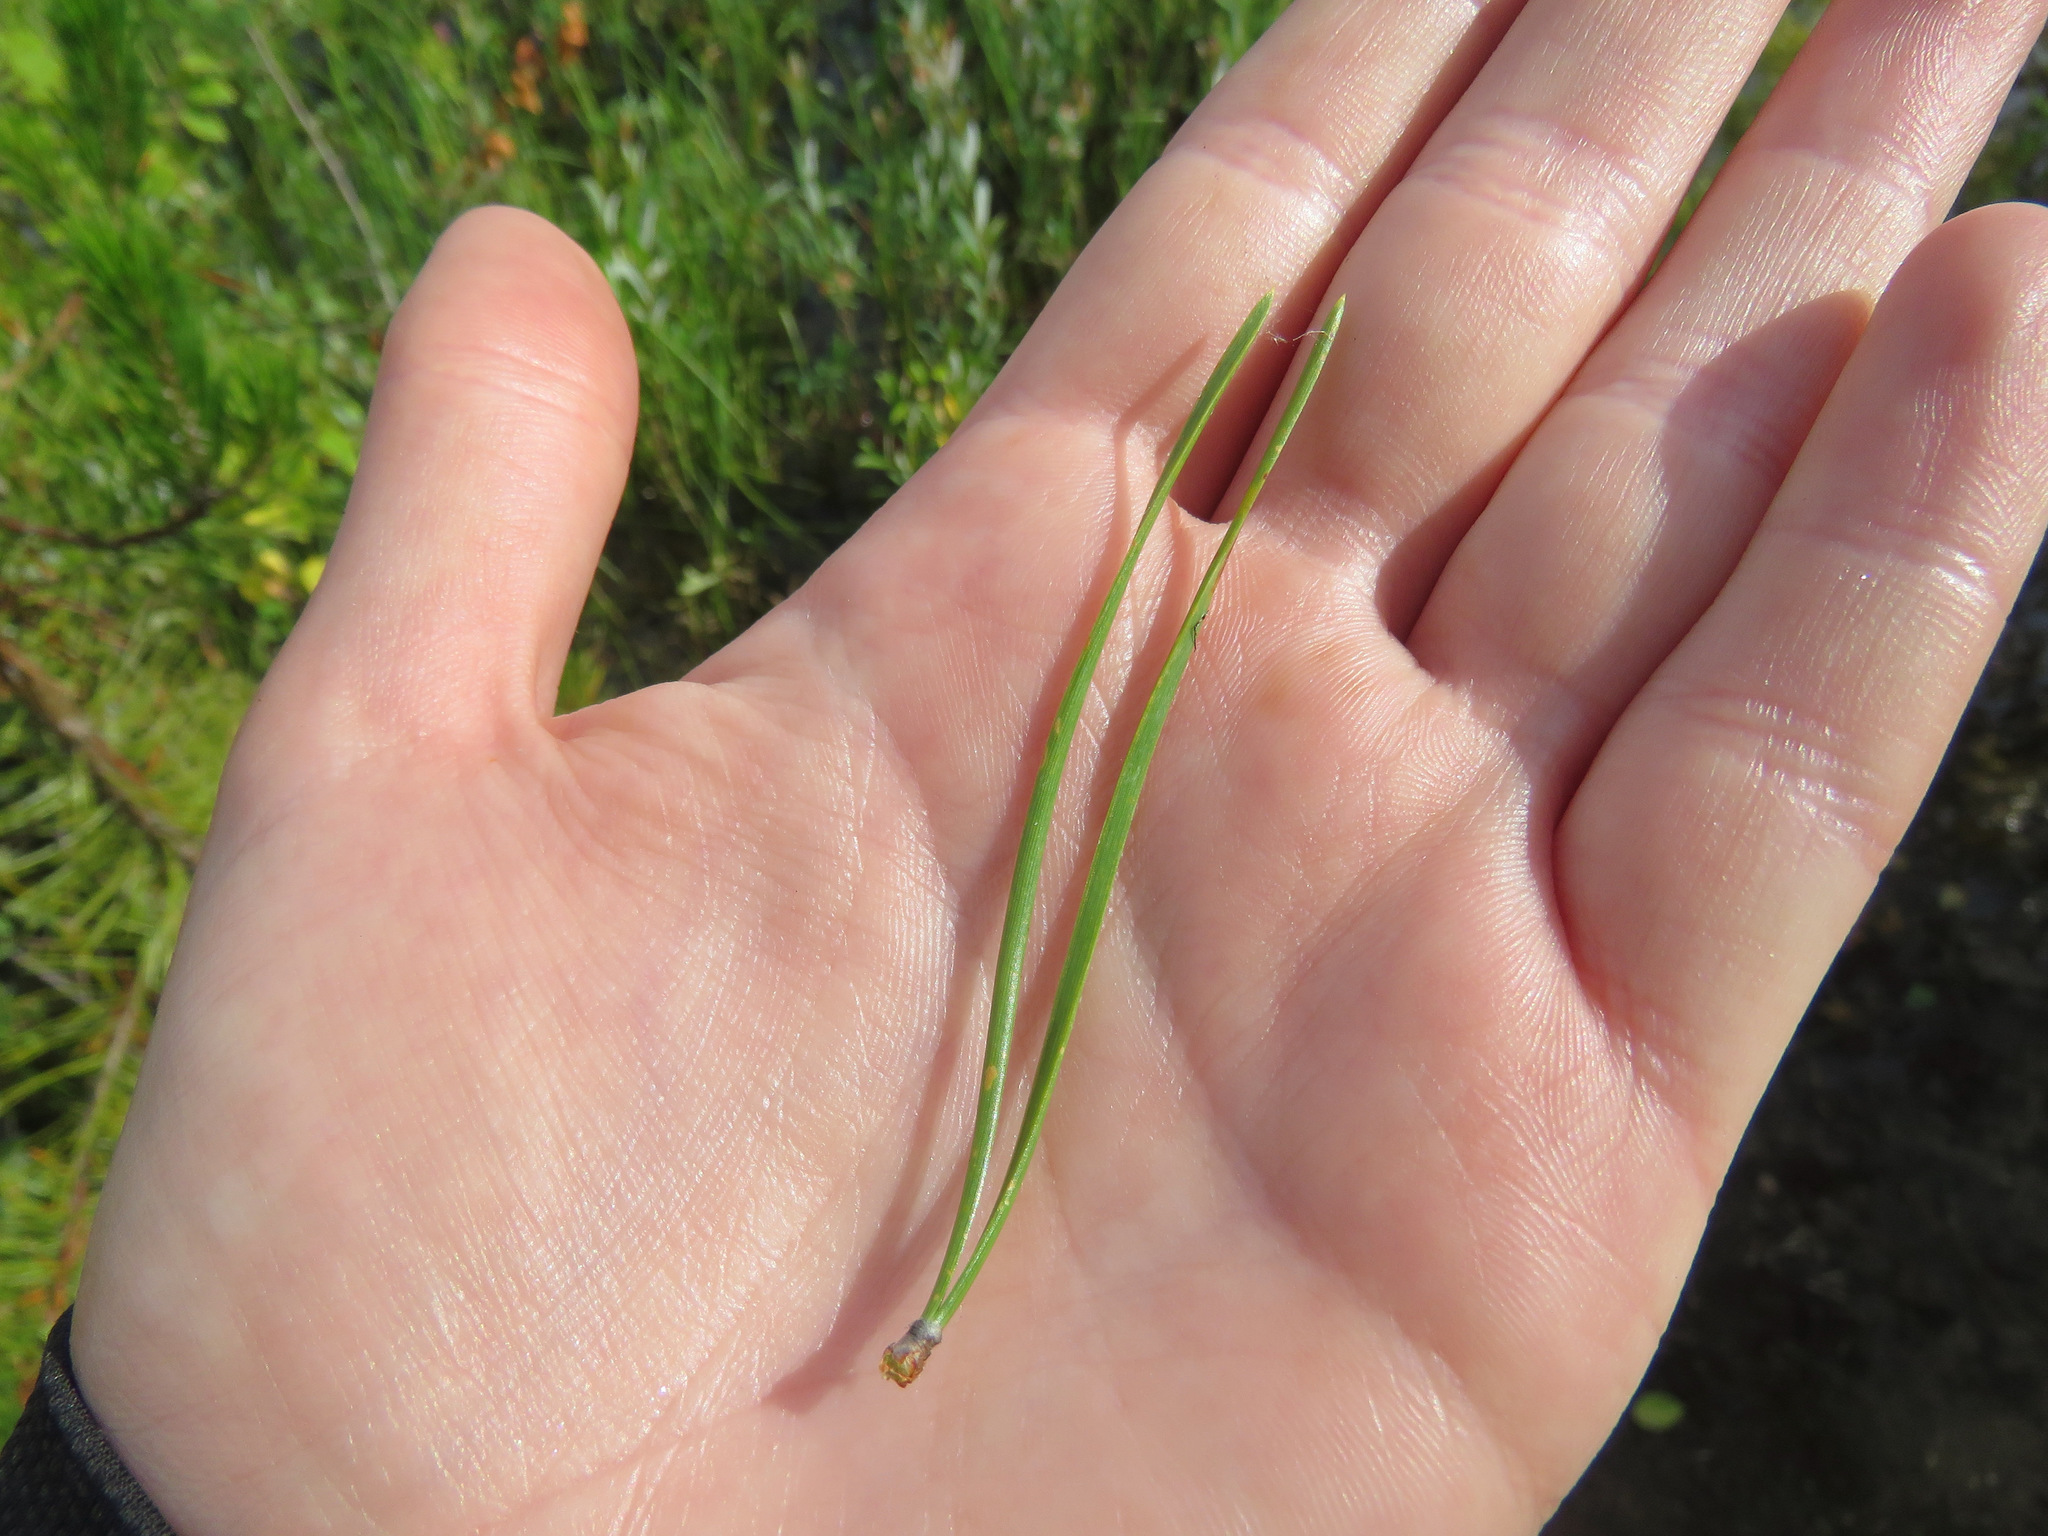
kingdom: Plantae
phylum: Tracheophyta
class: Pinopsida
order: Pinales
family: Pinaceae
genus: Pinus
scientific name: Pinus contorta
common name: Lodgepole pine
